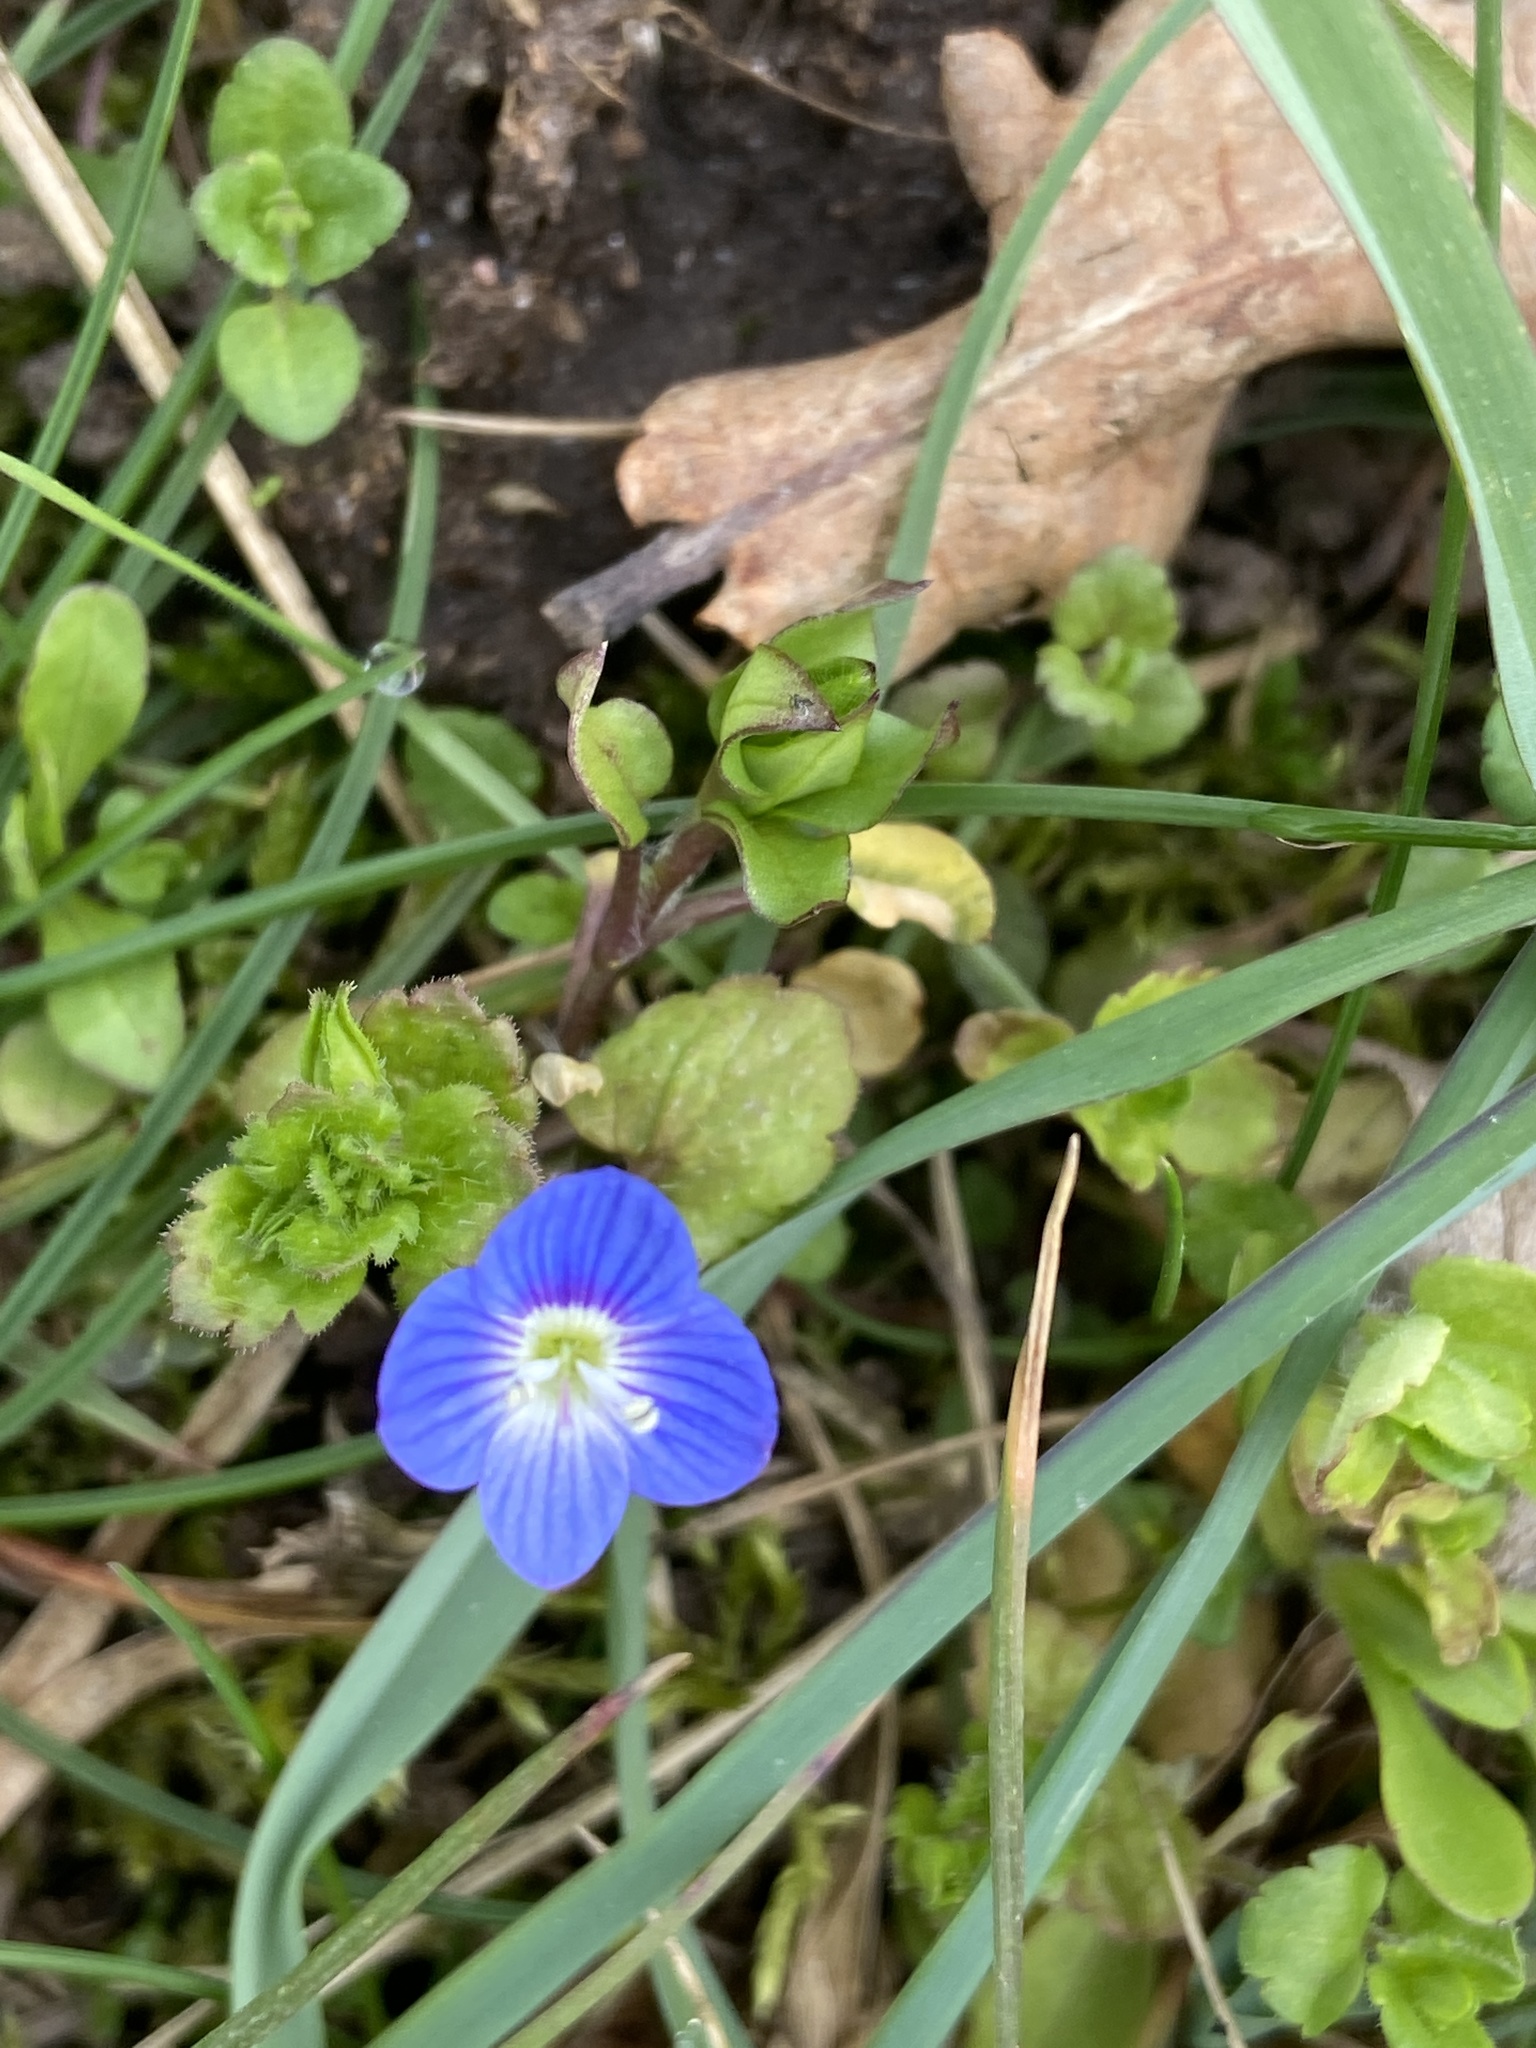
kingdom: Plantae
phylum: Tracheophyta
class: Magnoliopsida
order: Lamiales
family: Plantaginaceae
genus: Veronica
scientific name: Veronica persica
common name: Common field-speedwell
